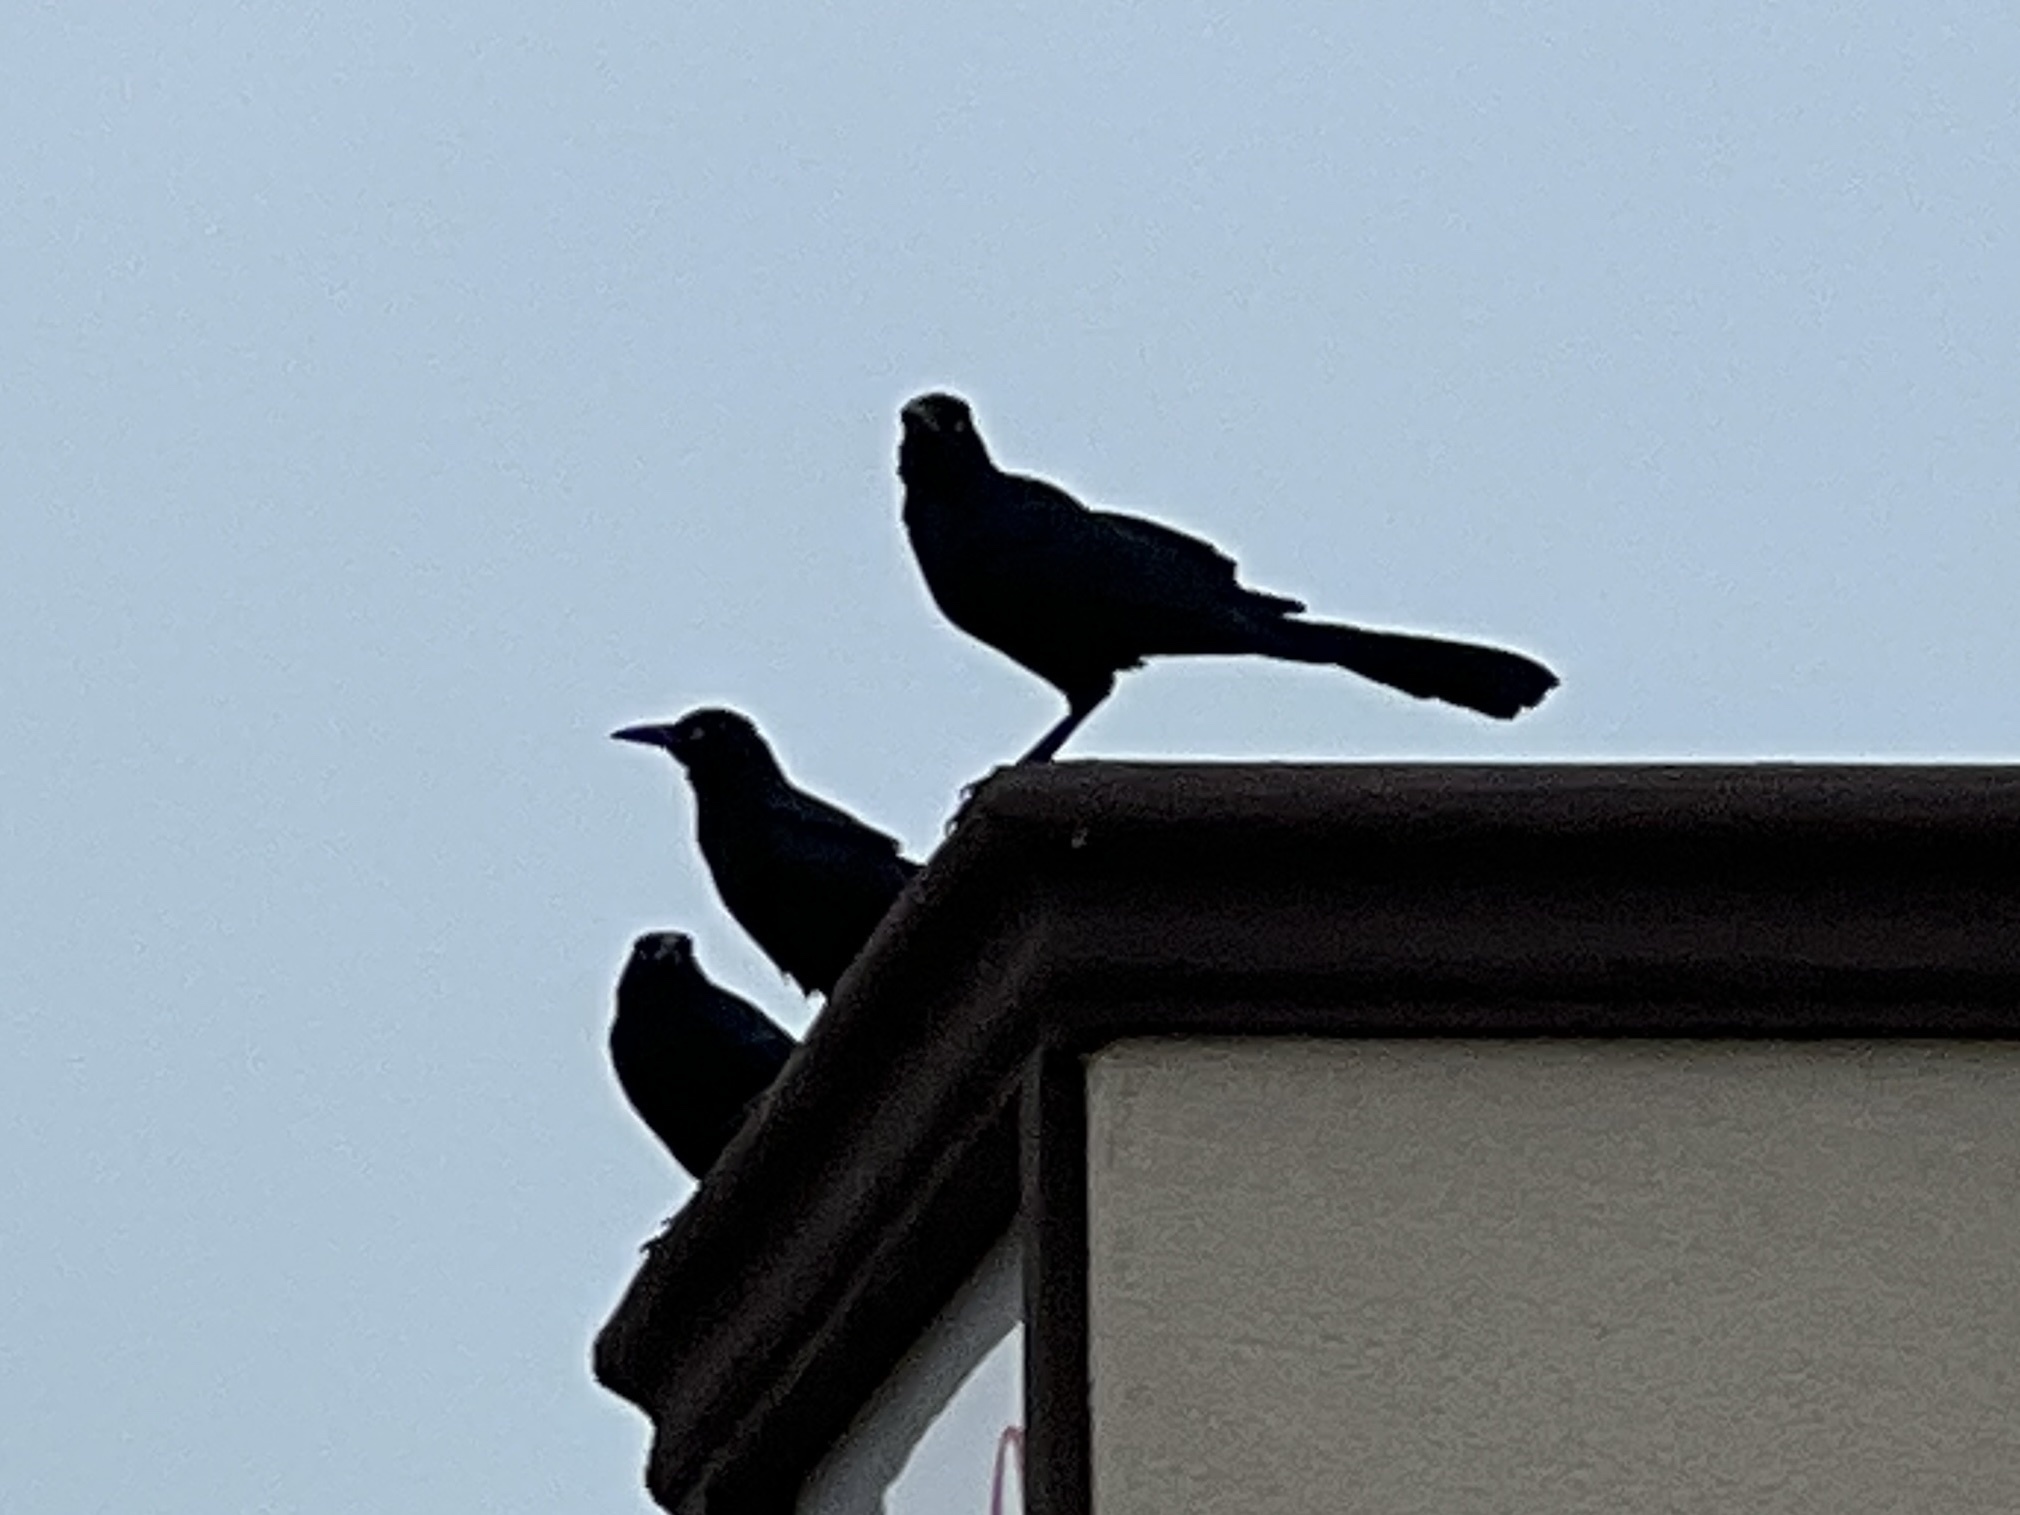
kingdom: Animalia
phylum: Chordata
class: Aves
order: Passeriformes
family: Icteridae
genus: Quiscalus
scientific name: Quiscalus mexicanus
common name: Great-tailed grackle
